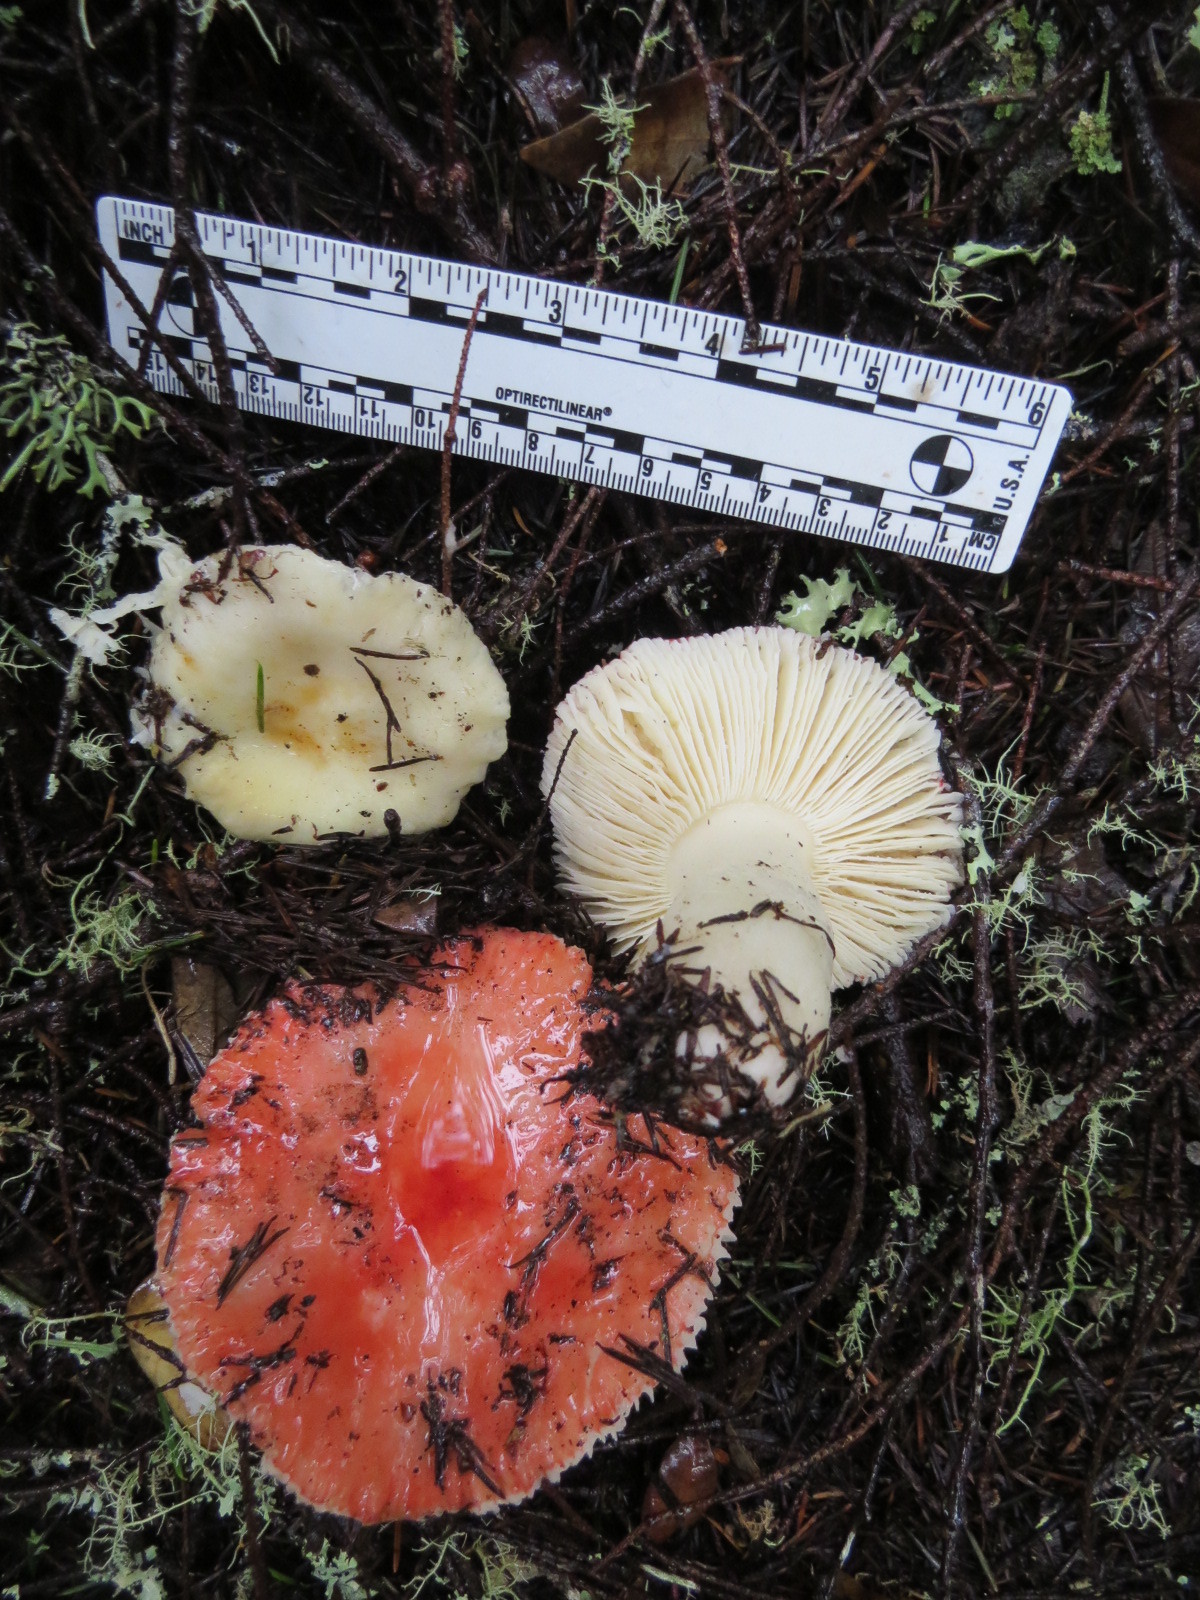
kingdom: Fungi
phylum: Basidiomycota
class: Agaricomycetes
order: Russulales
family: Russulaceae
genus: Russula
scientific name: Russula cremoricolor
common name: Winter russula
